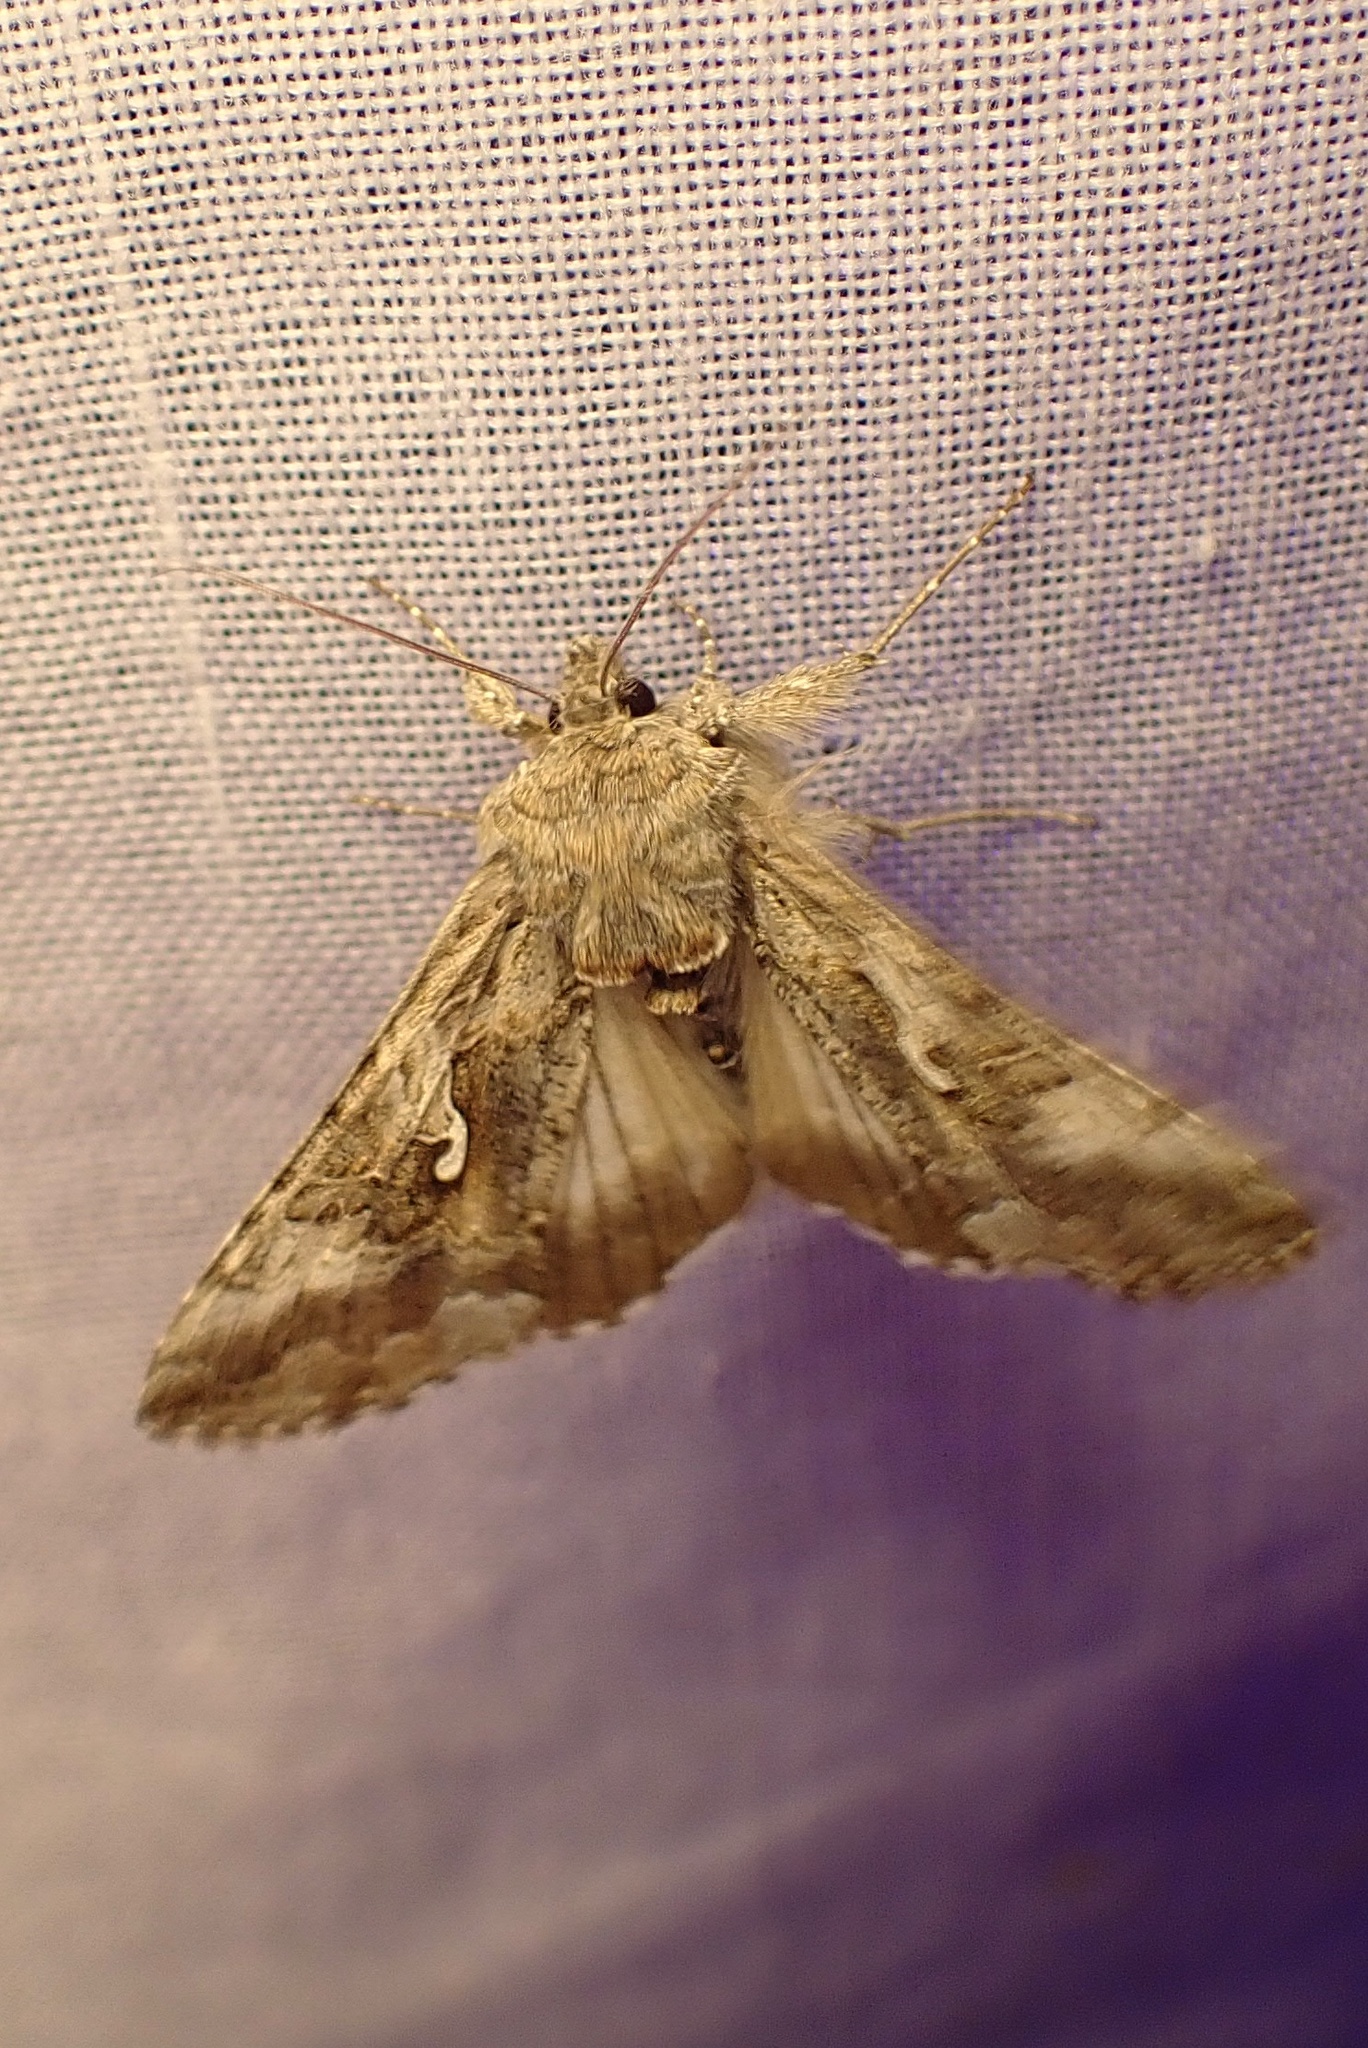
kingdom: Animalia
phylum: Arthropoda
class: Insecta
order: Lepidoptera
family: Noctuidae
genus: Autographa
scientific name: Autographa californica
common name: Alfalfa looper
